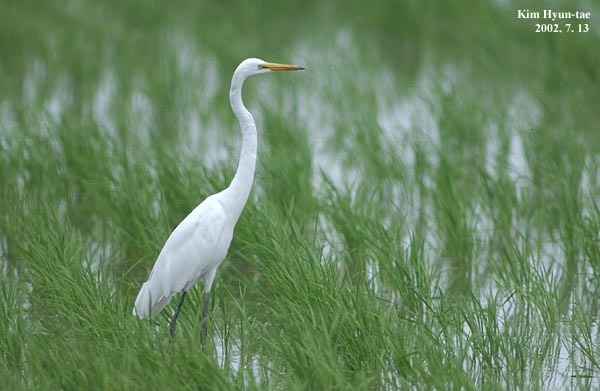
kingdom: Animalia
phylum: Chordata
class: Aves
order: Pelecaniformes
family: Ardeidae
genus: Ardea
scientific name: Ardea modesta
